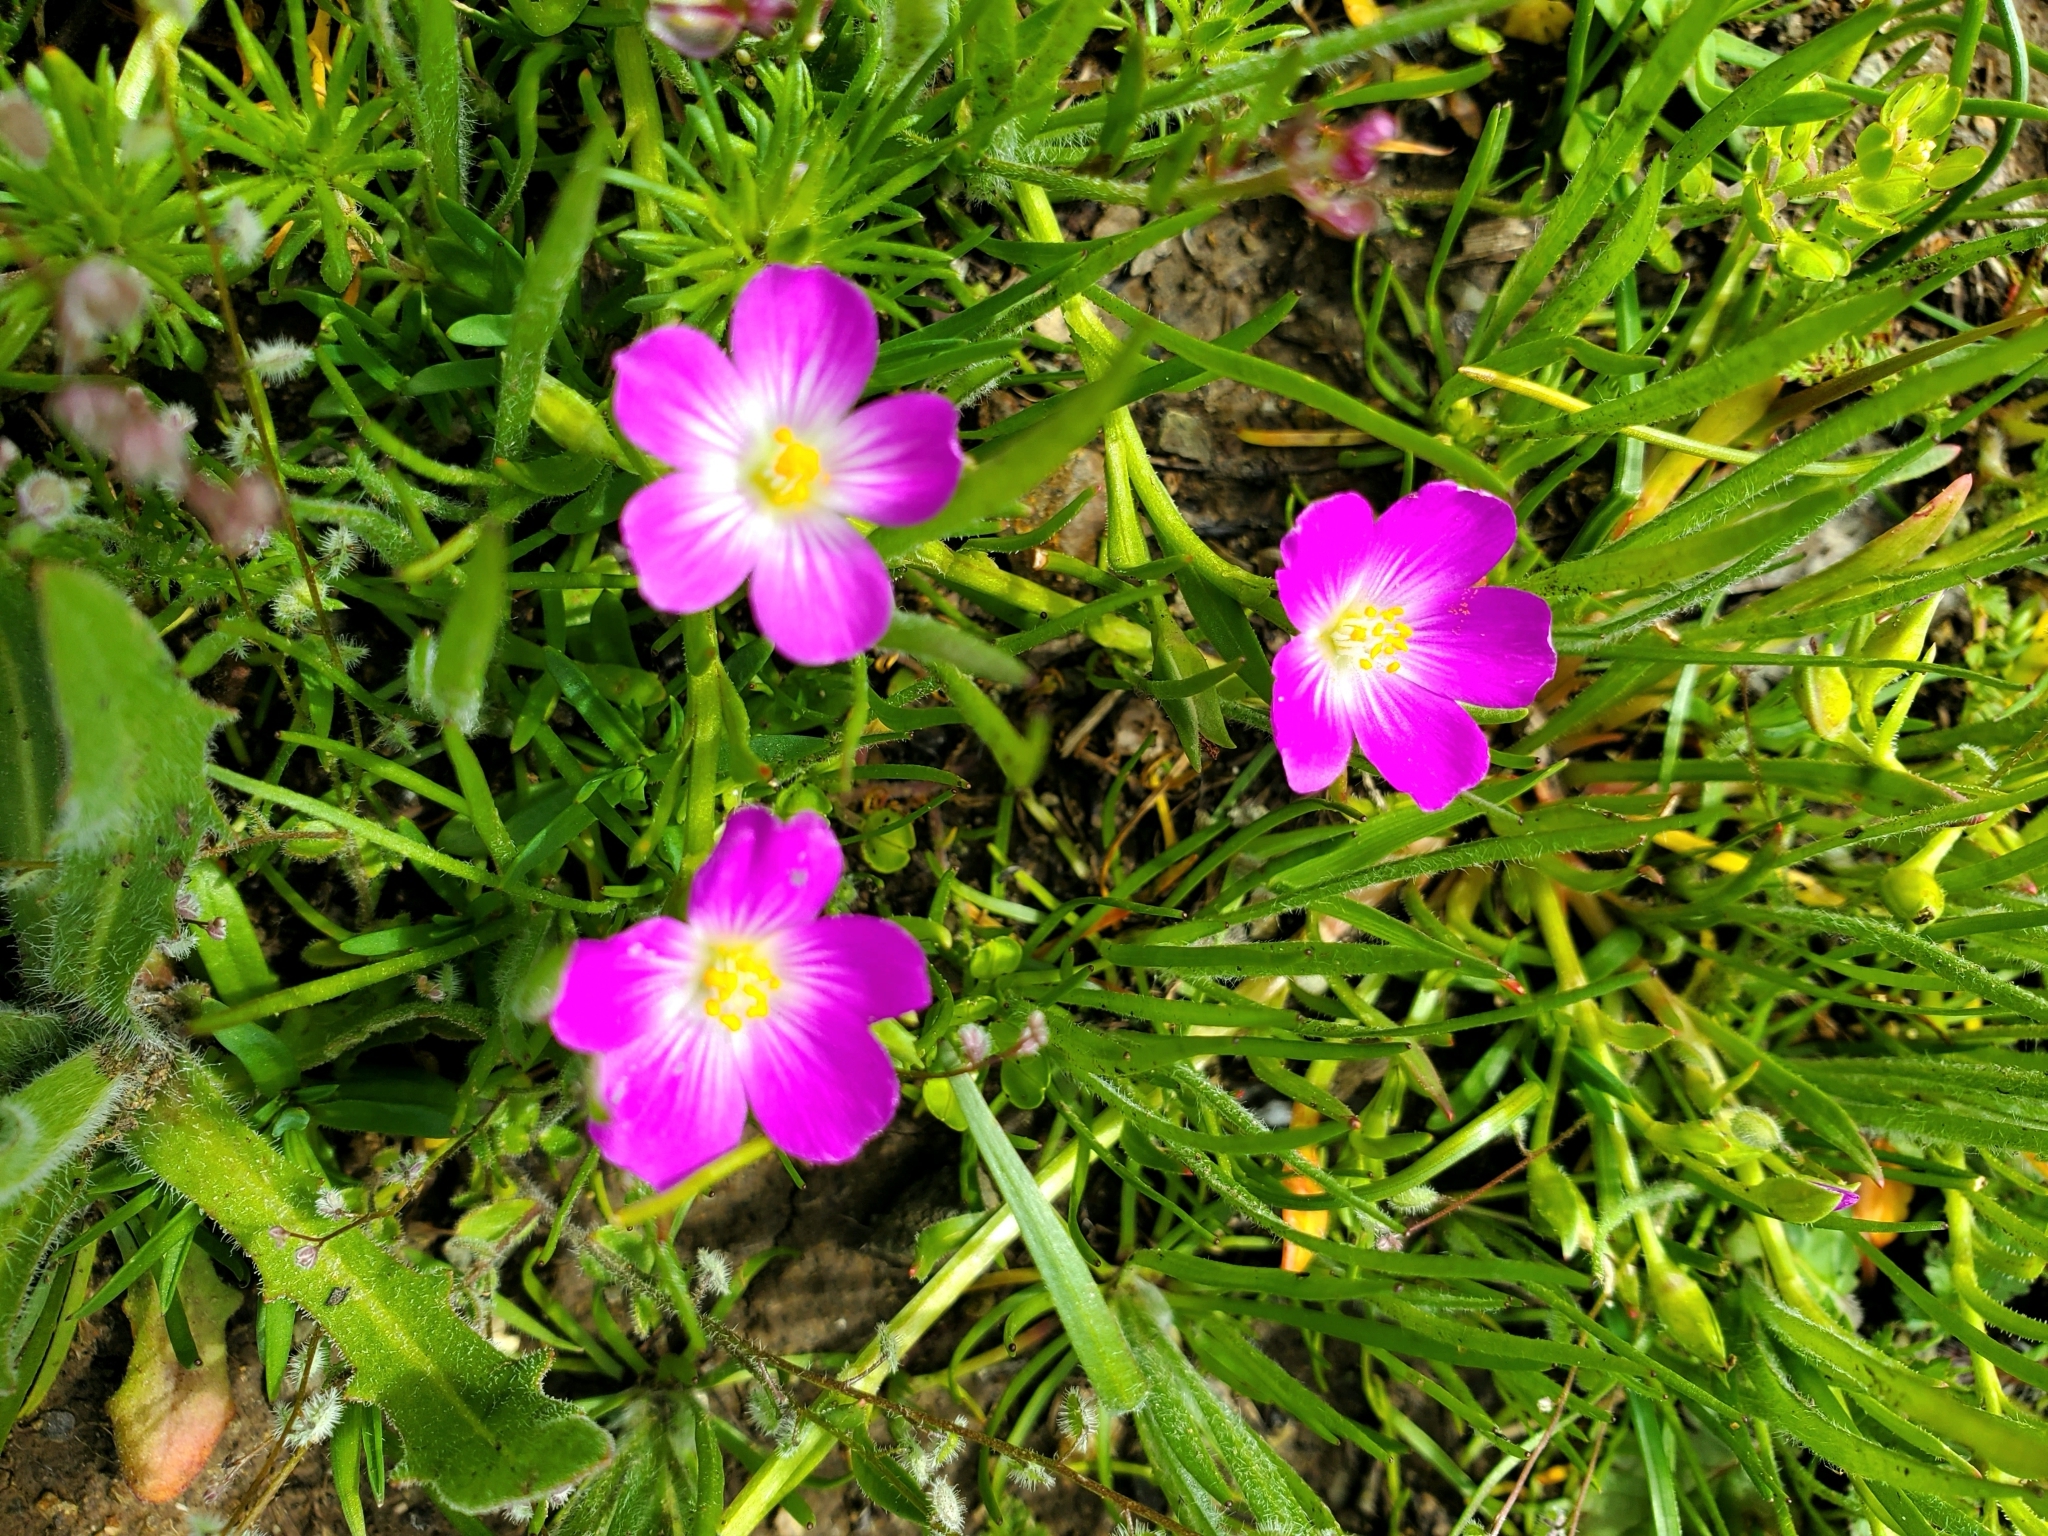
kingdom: Plantae
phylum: Tracheophyta
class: Magnoliopsida
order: Caryophyllales
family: Montiaceae
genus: Calandrinia
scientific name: Calandrinia menziesii
